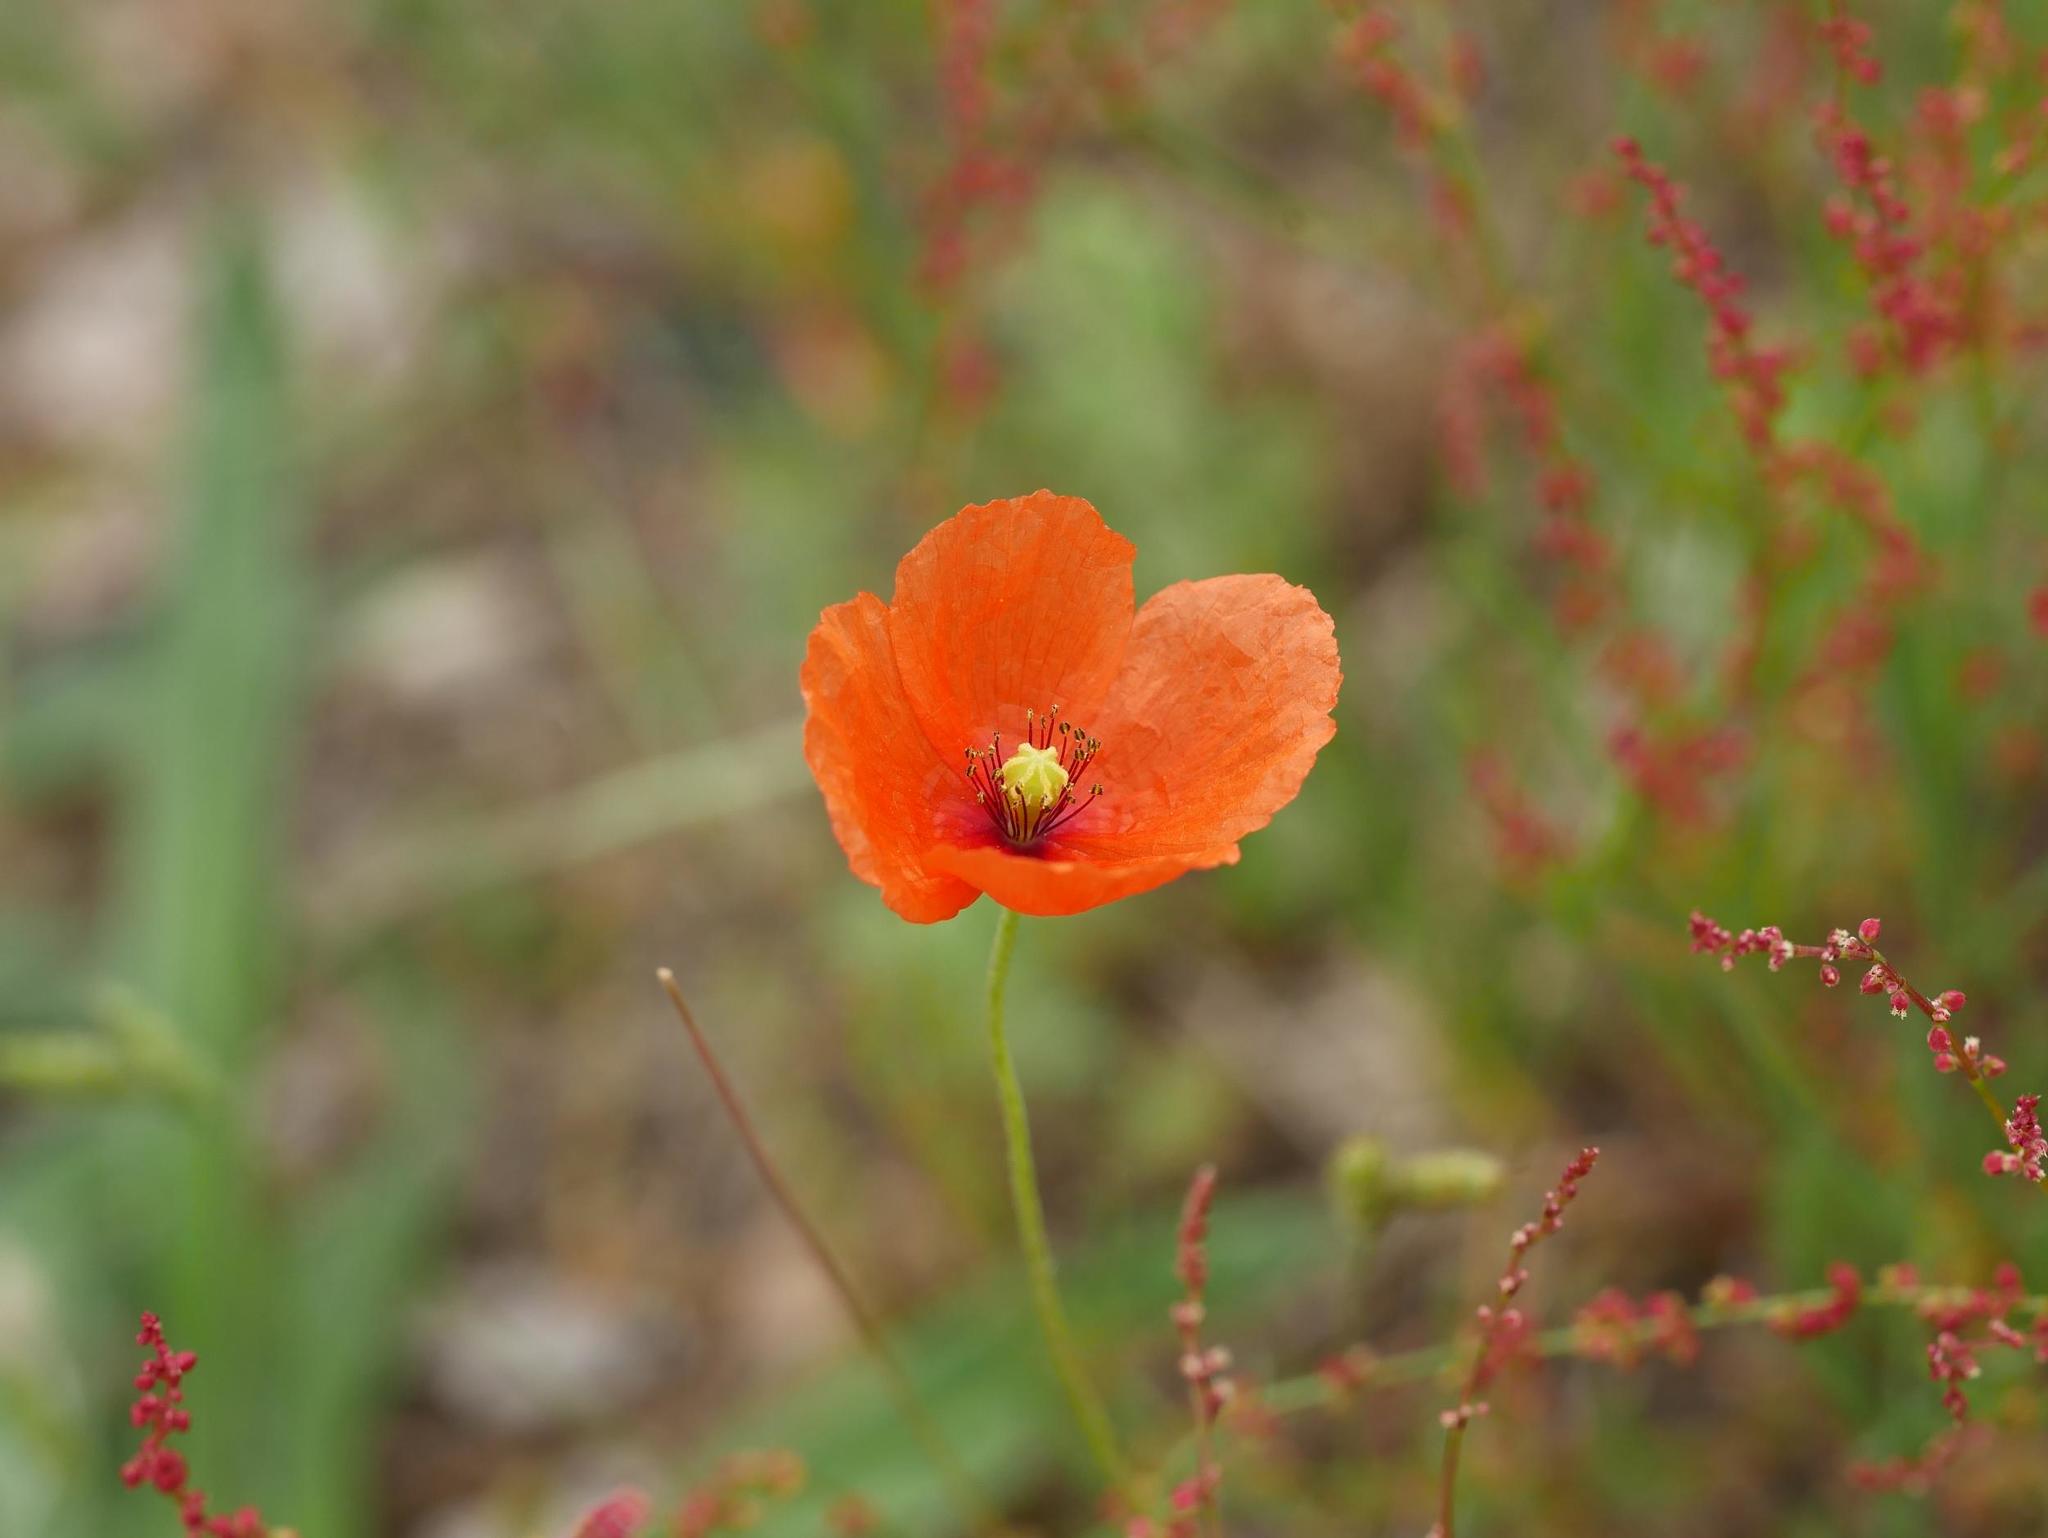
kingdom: Plantae
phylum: Tracheophyta
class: Magnoliopsida
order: Ranunculales
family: Papaveraceae
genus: Papaver
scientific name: Papaver dubium
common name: Long-headed poppy
